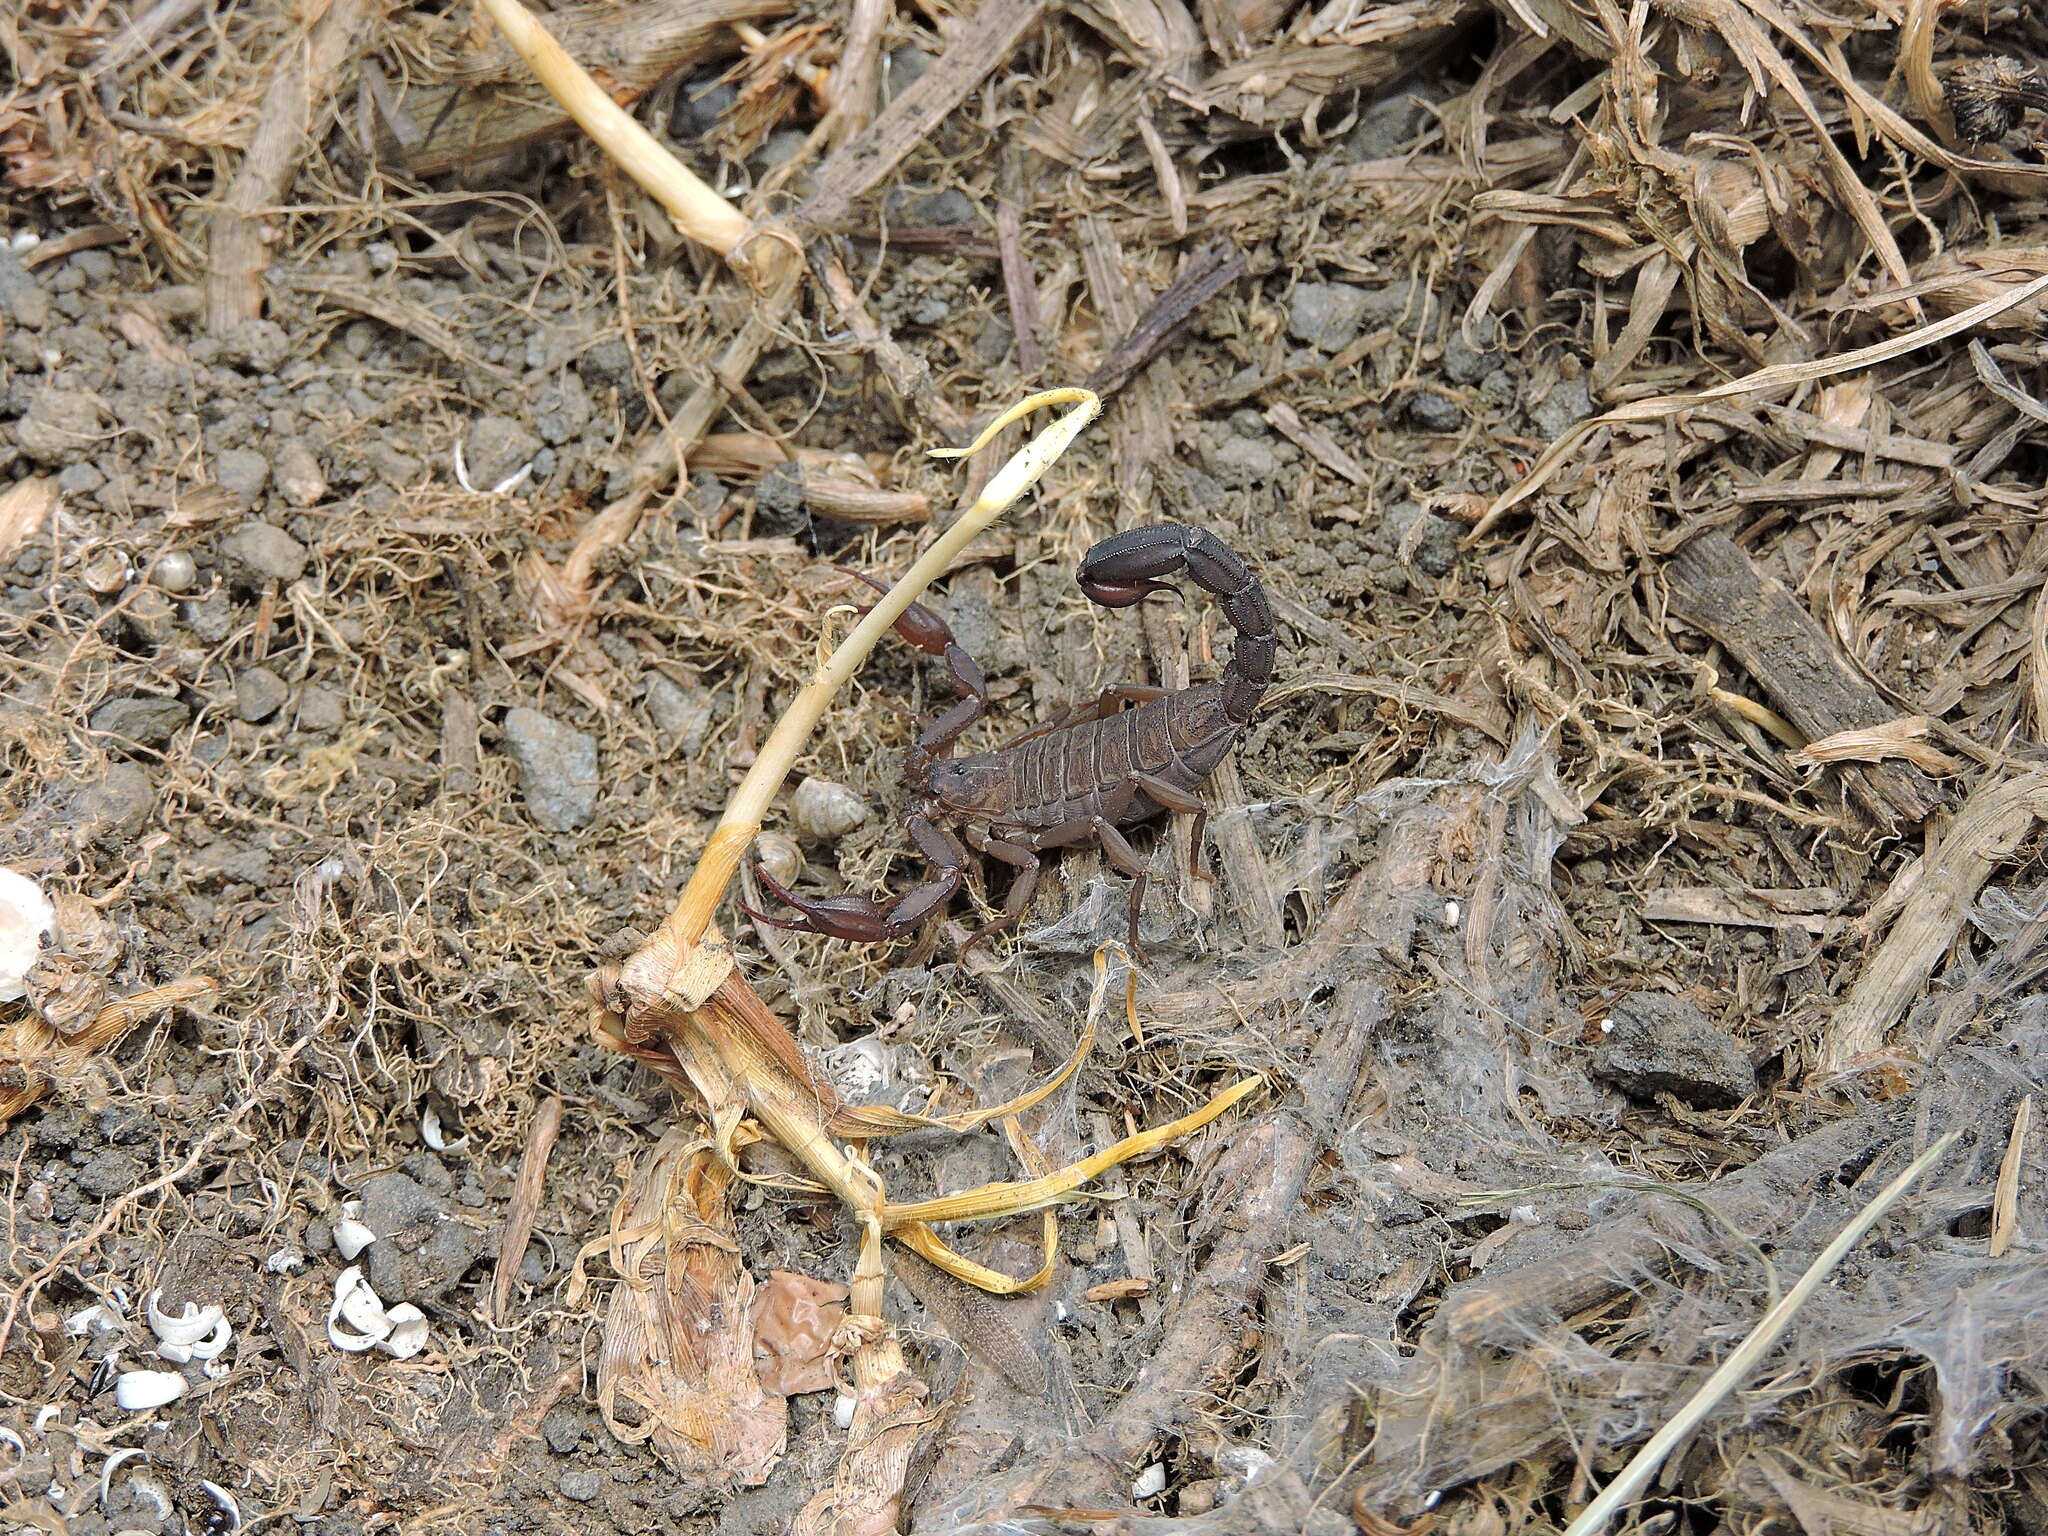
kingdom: Animalia
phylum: Arthropoda
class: Arachnida
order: Scorpiones
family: Vaejovidae
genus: Vaejovis
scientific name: Vaejovis mexicanus
